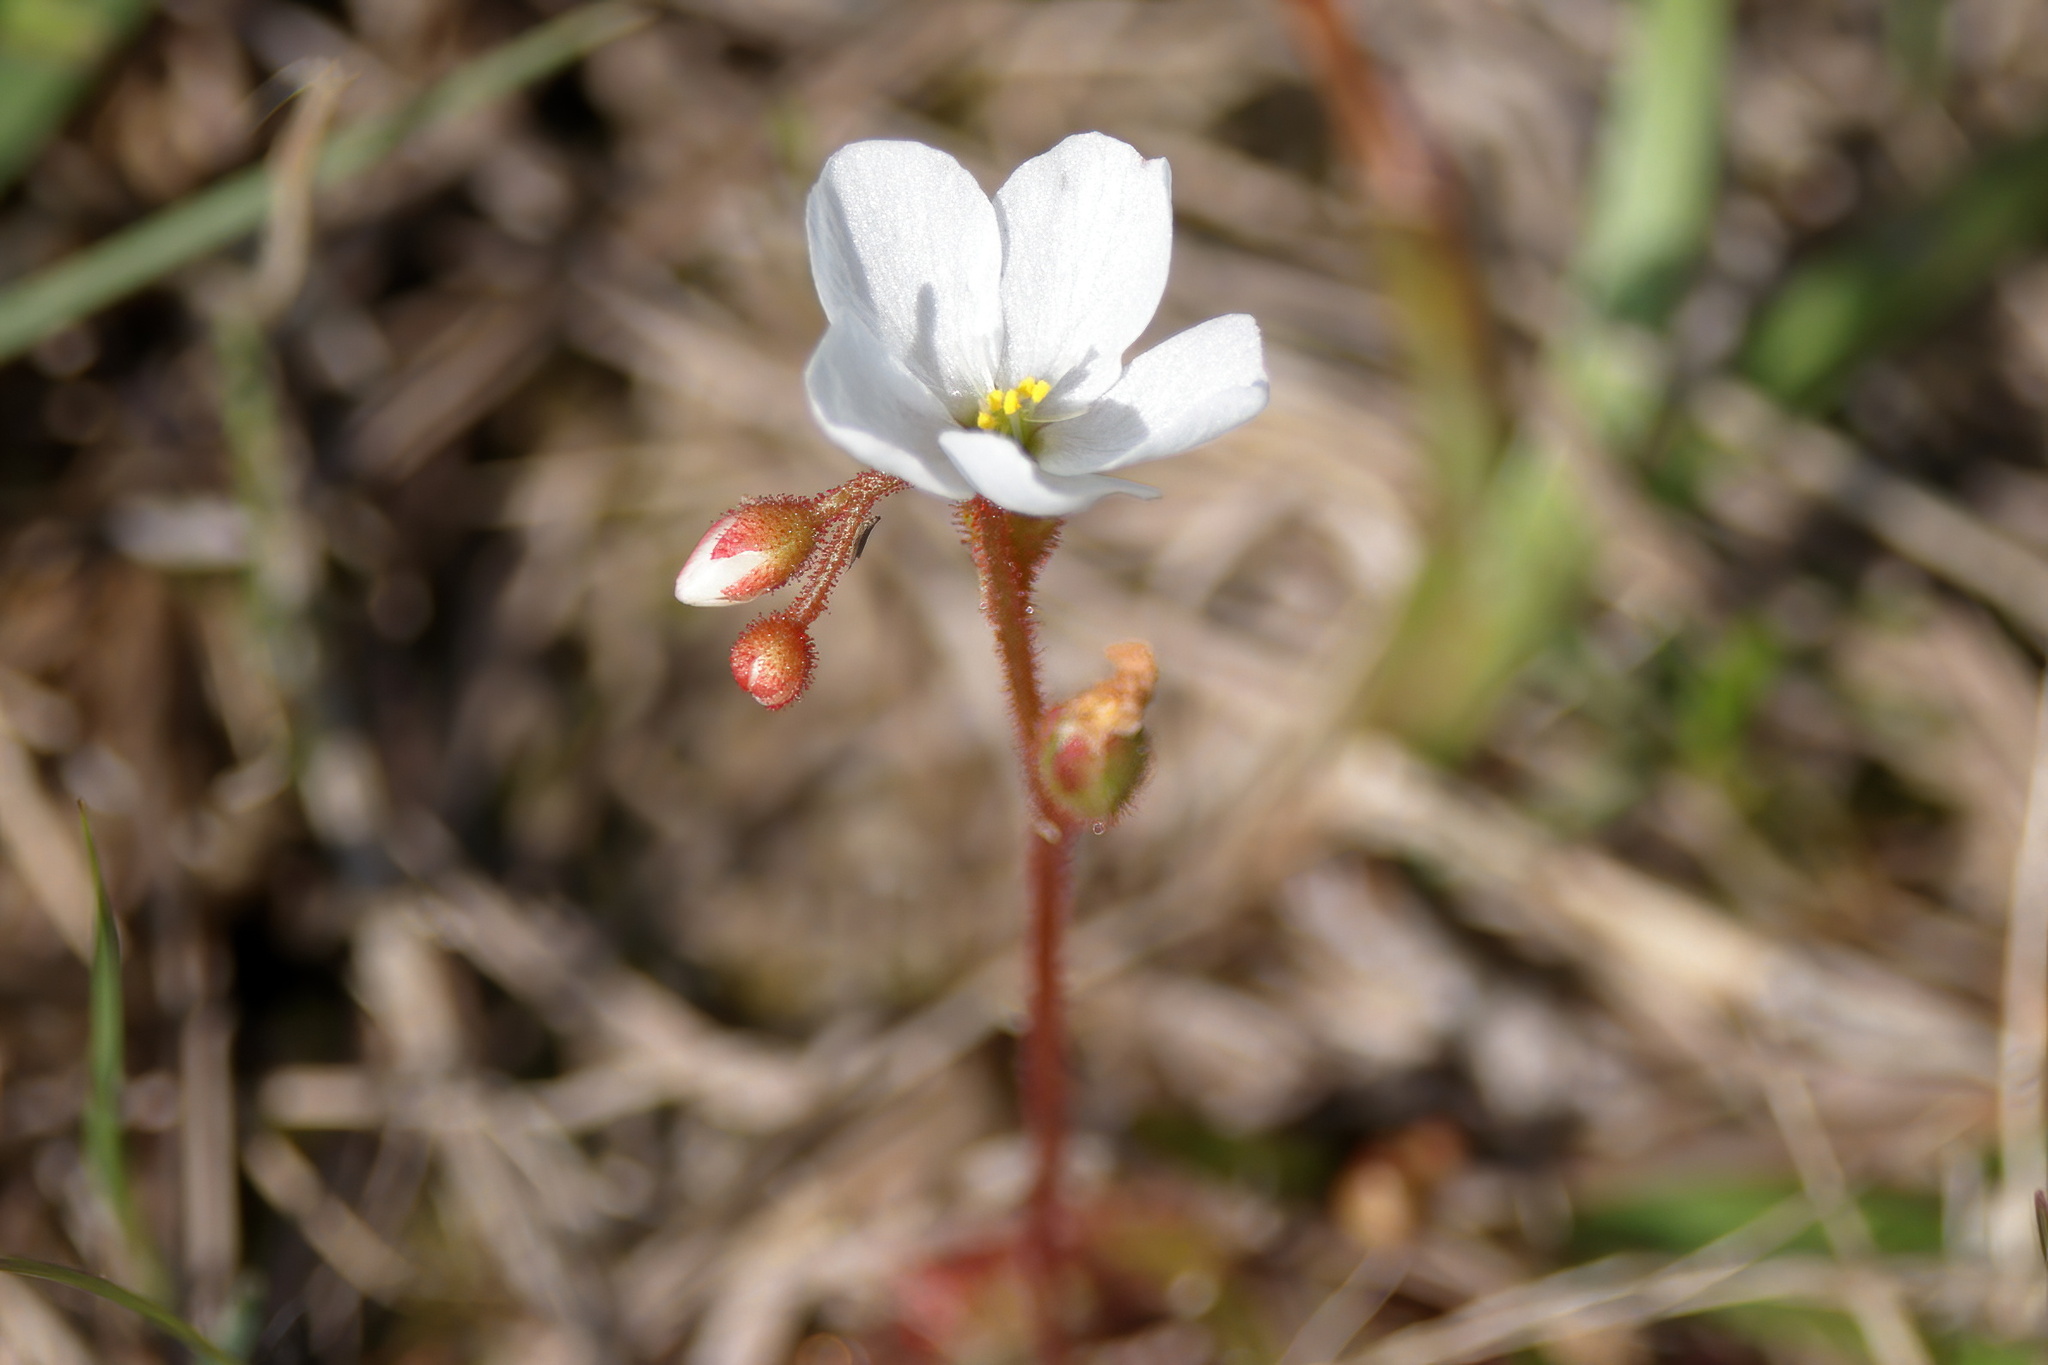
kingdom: Plantae
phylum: Tracheophyta
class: Magnoliopsida
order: Caryophyllales
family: Droseraceae
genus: Drosera
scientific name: Drosera brevifolia
